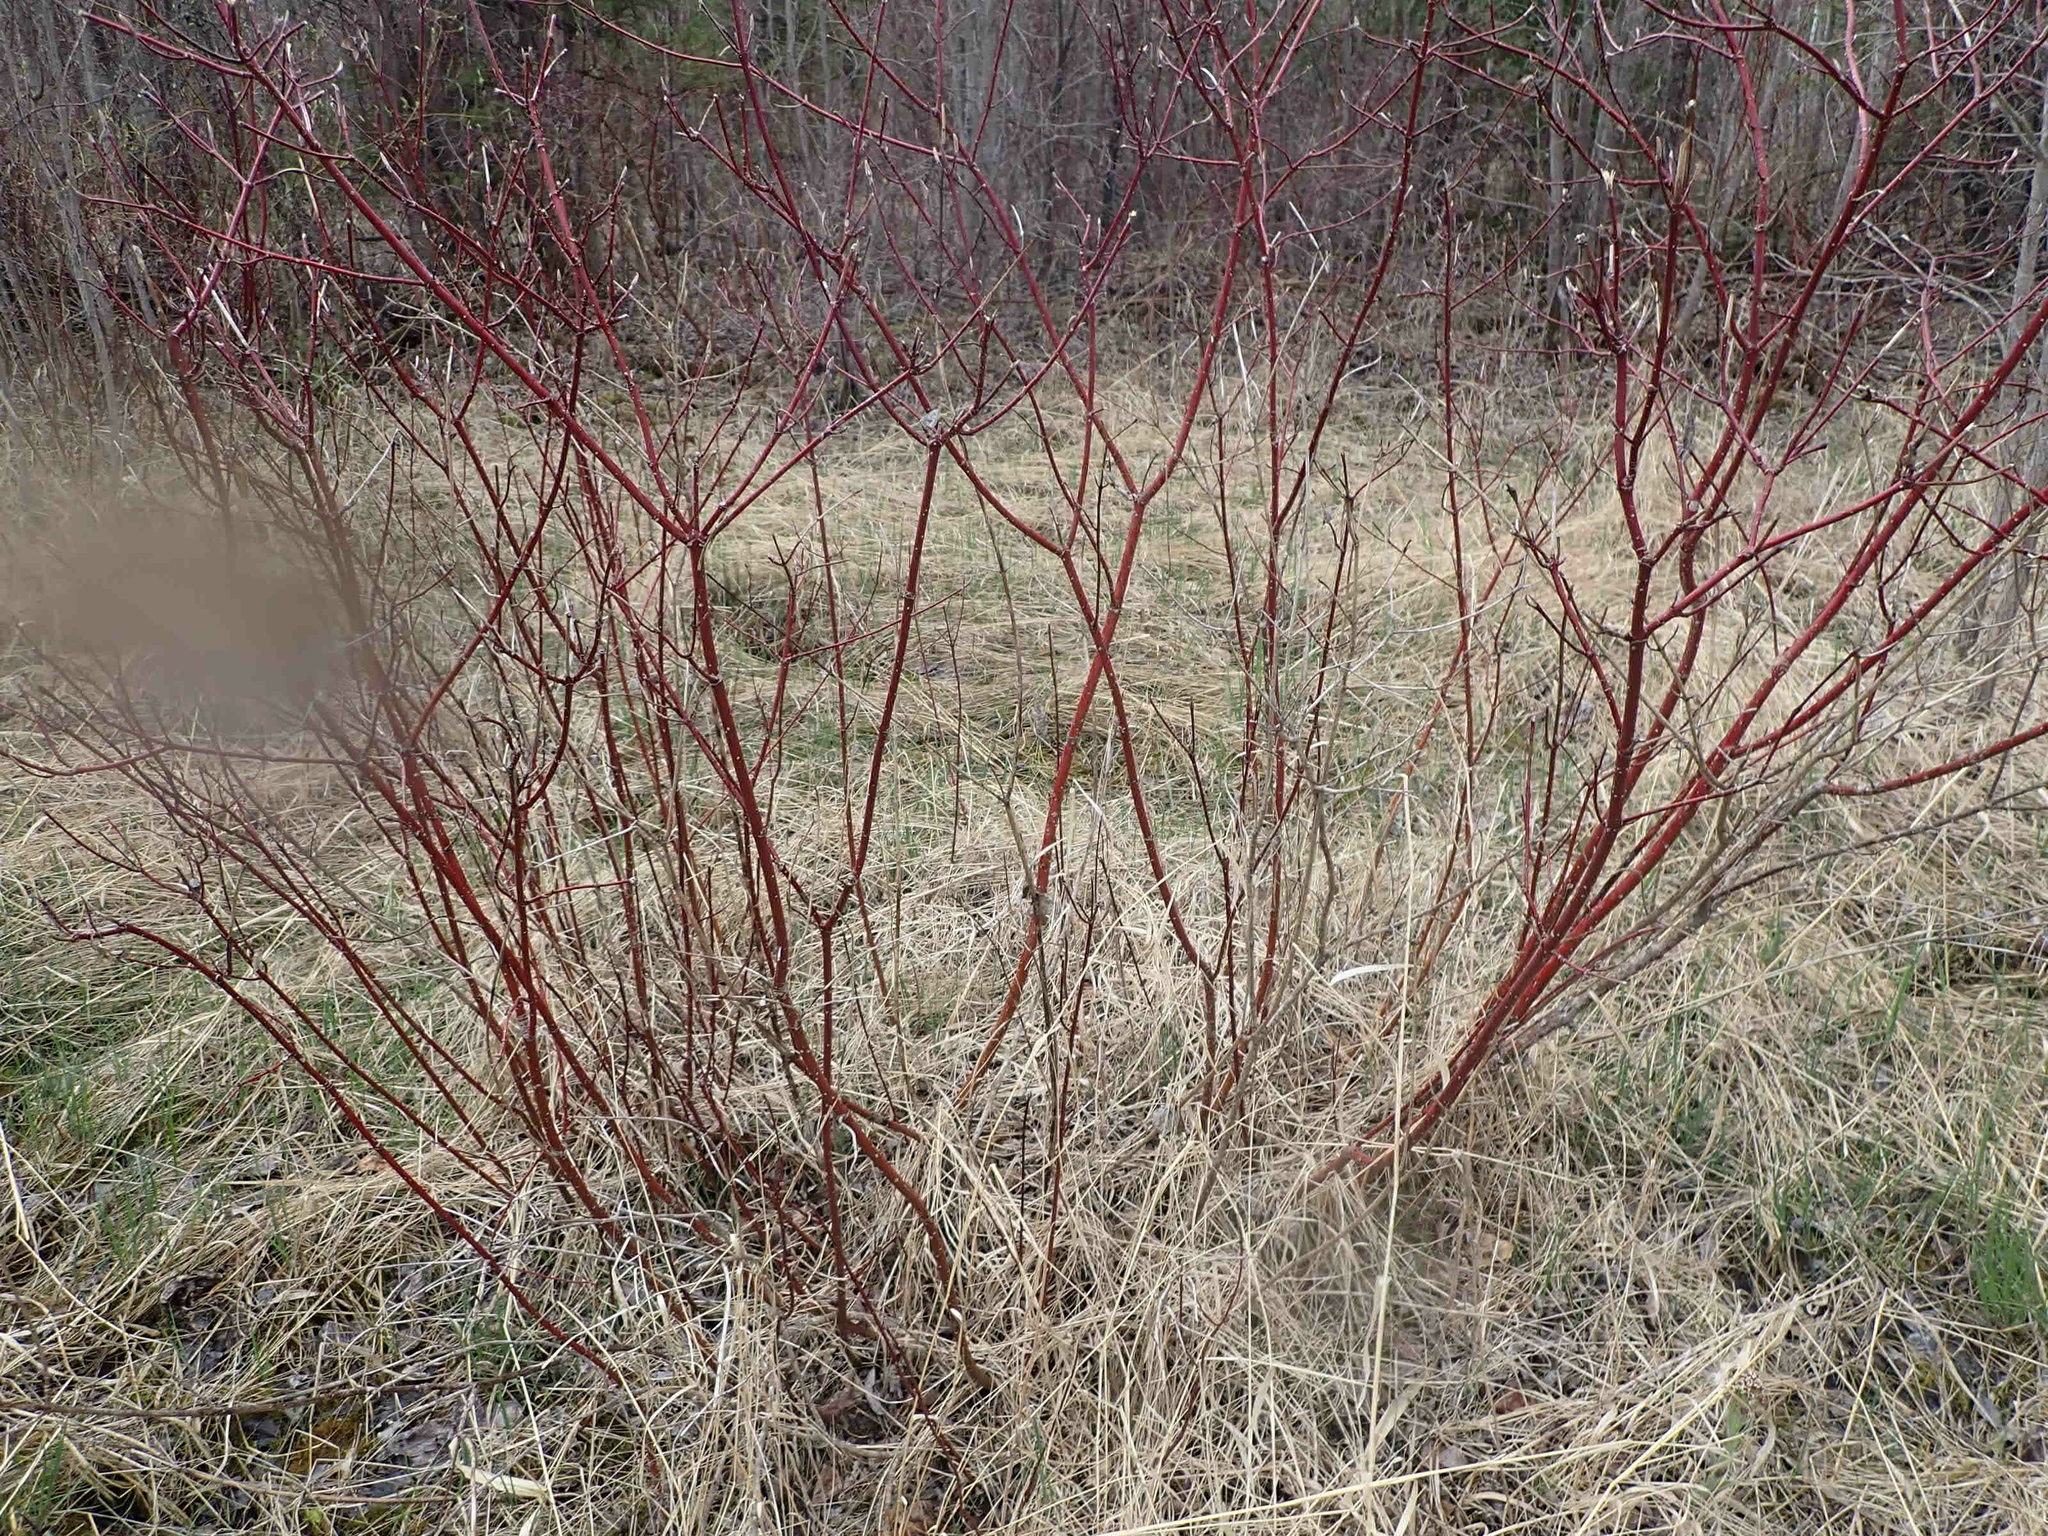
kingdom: Plantae
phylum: Tracheophyta
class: Magnoliopsida
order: Cornales
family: Cornaceae
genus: Cornus
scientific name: Cornus sericea
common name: Red-osier dogwood
